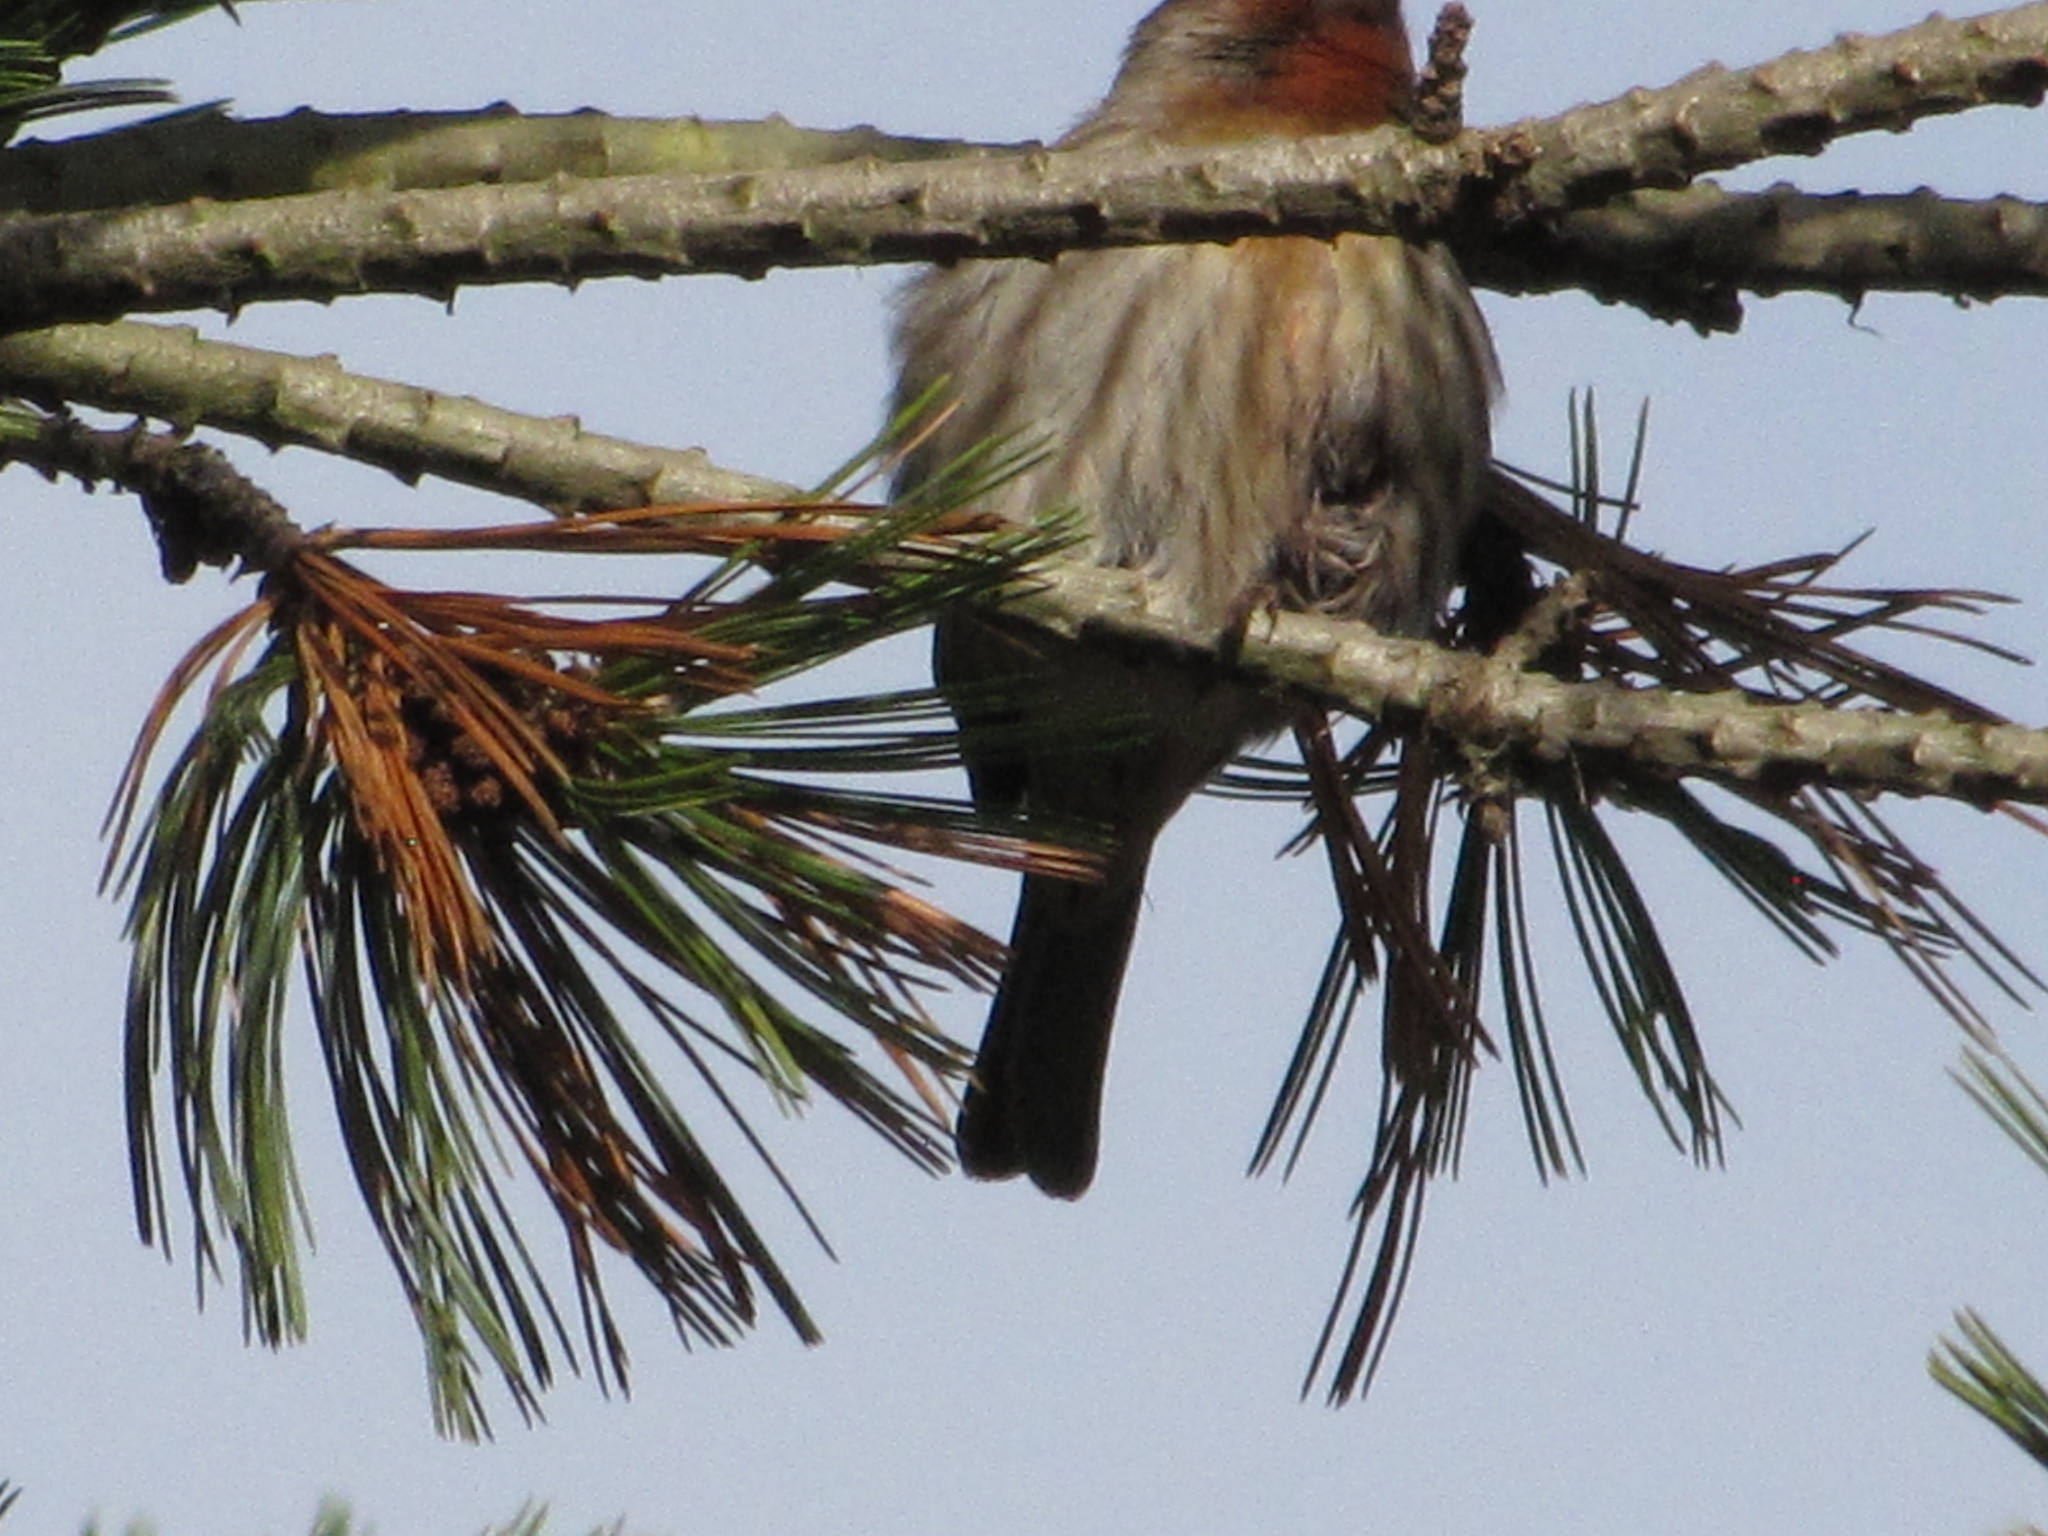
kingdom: Animalia
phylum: Chordata
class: Aves
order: Passeriformes
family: Fringillidae
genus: Haemorhous
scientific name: Haemorhous mexicanus
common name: House finch
